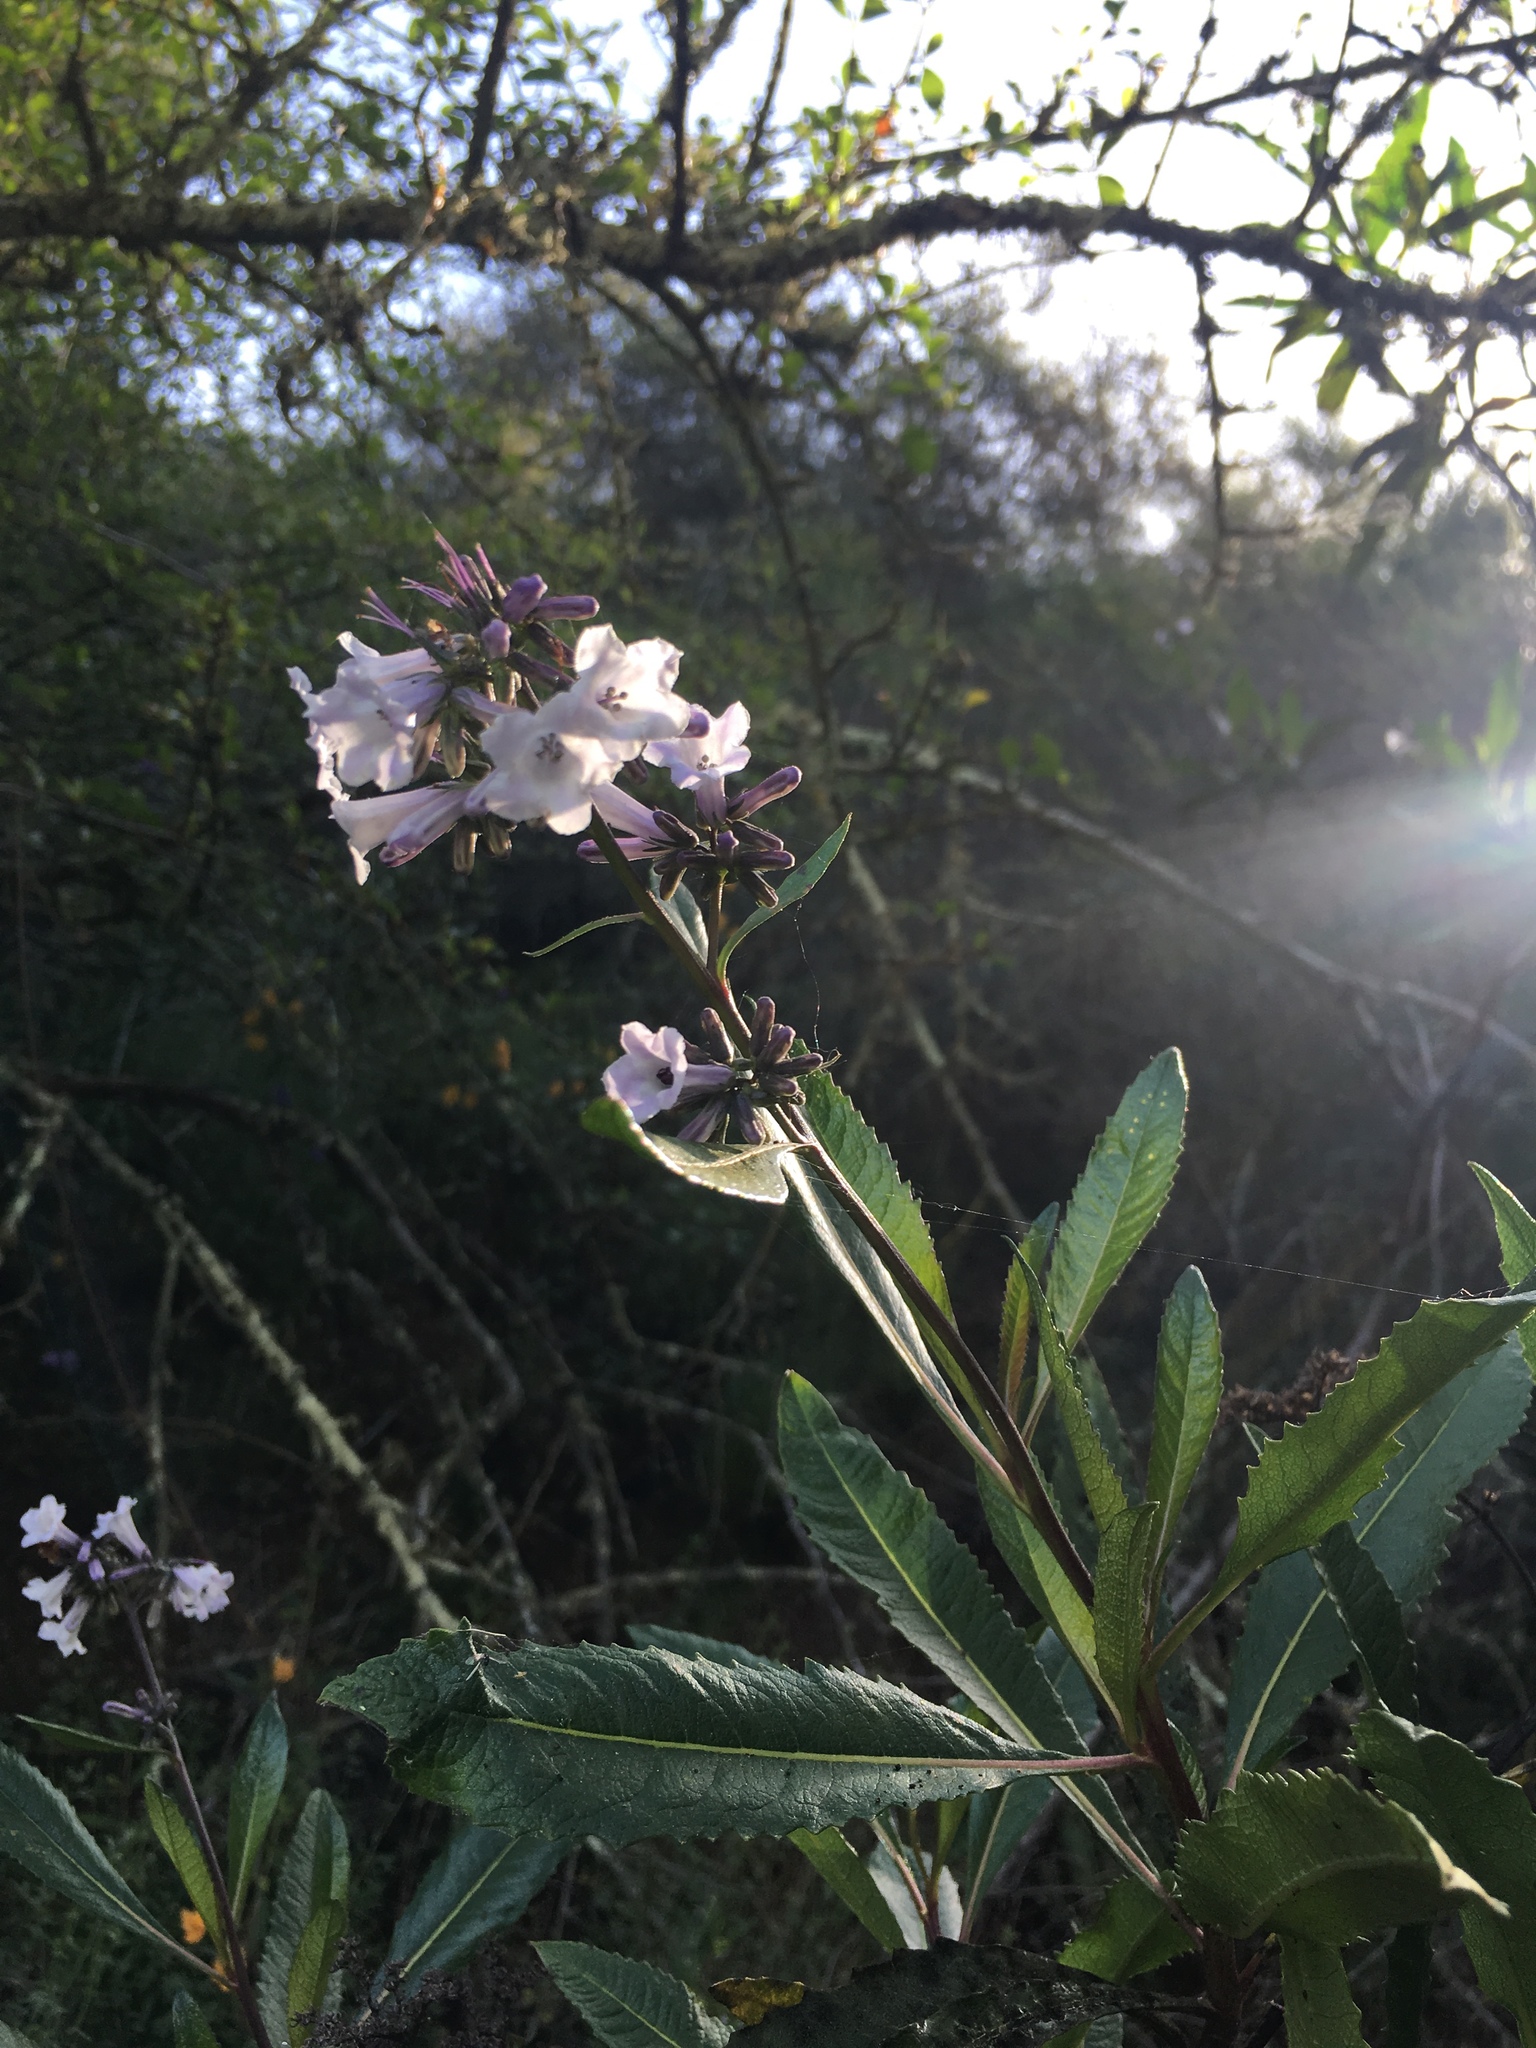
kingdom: Plantae
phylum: Tracheophyta
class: Magnoliopsida
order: Boraginales
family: Namaceae
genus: Eriodictyon
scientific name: Eriodictyon californicum
